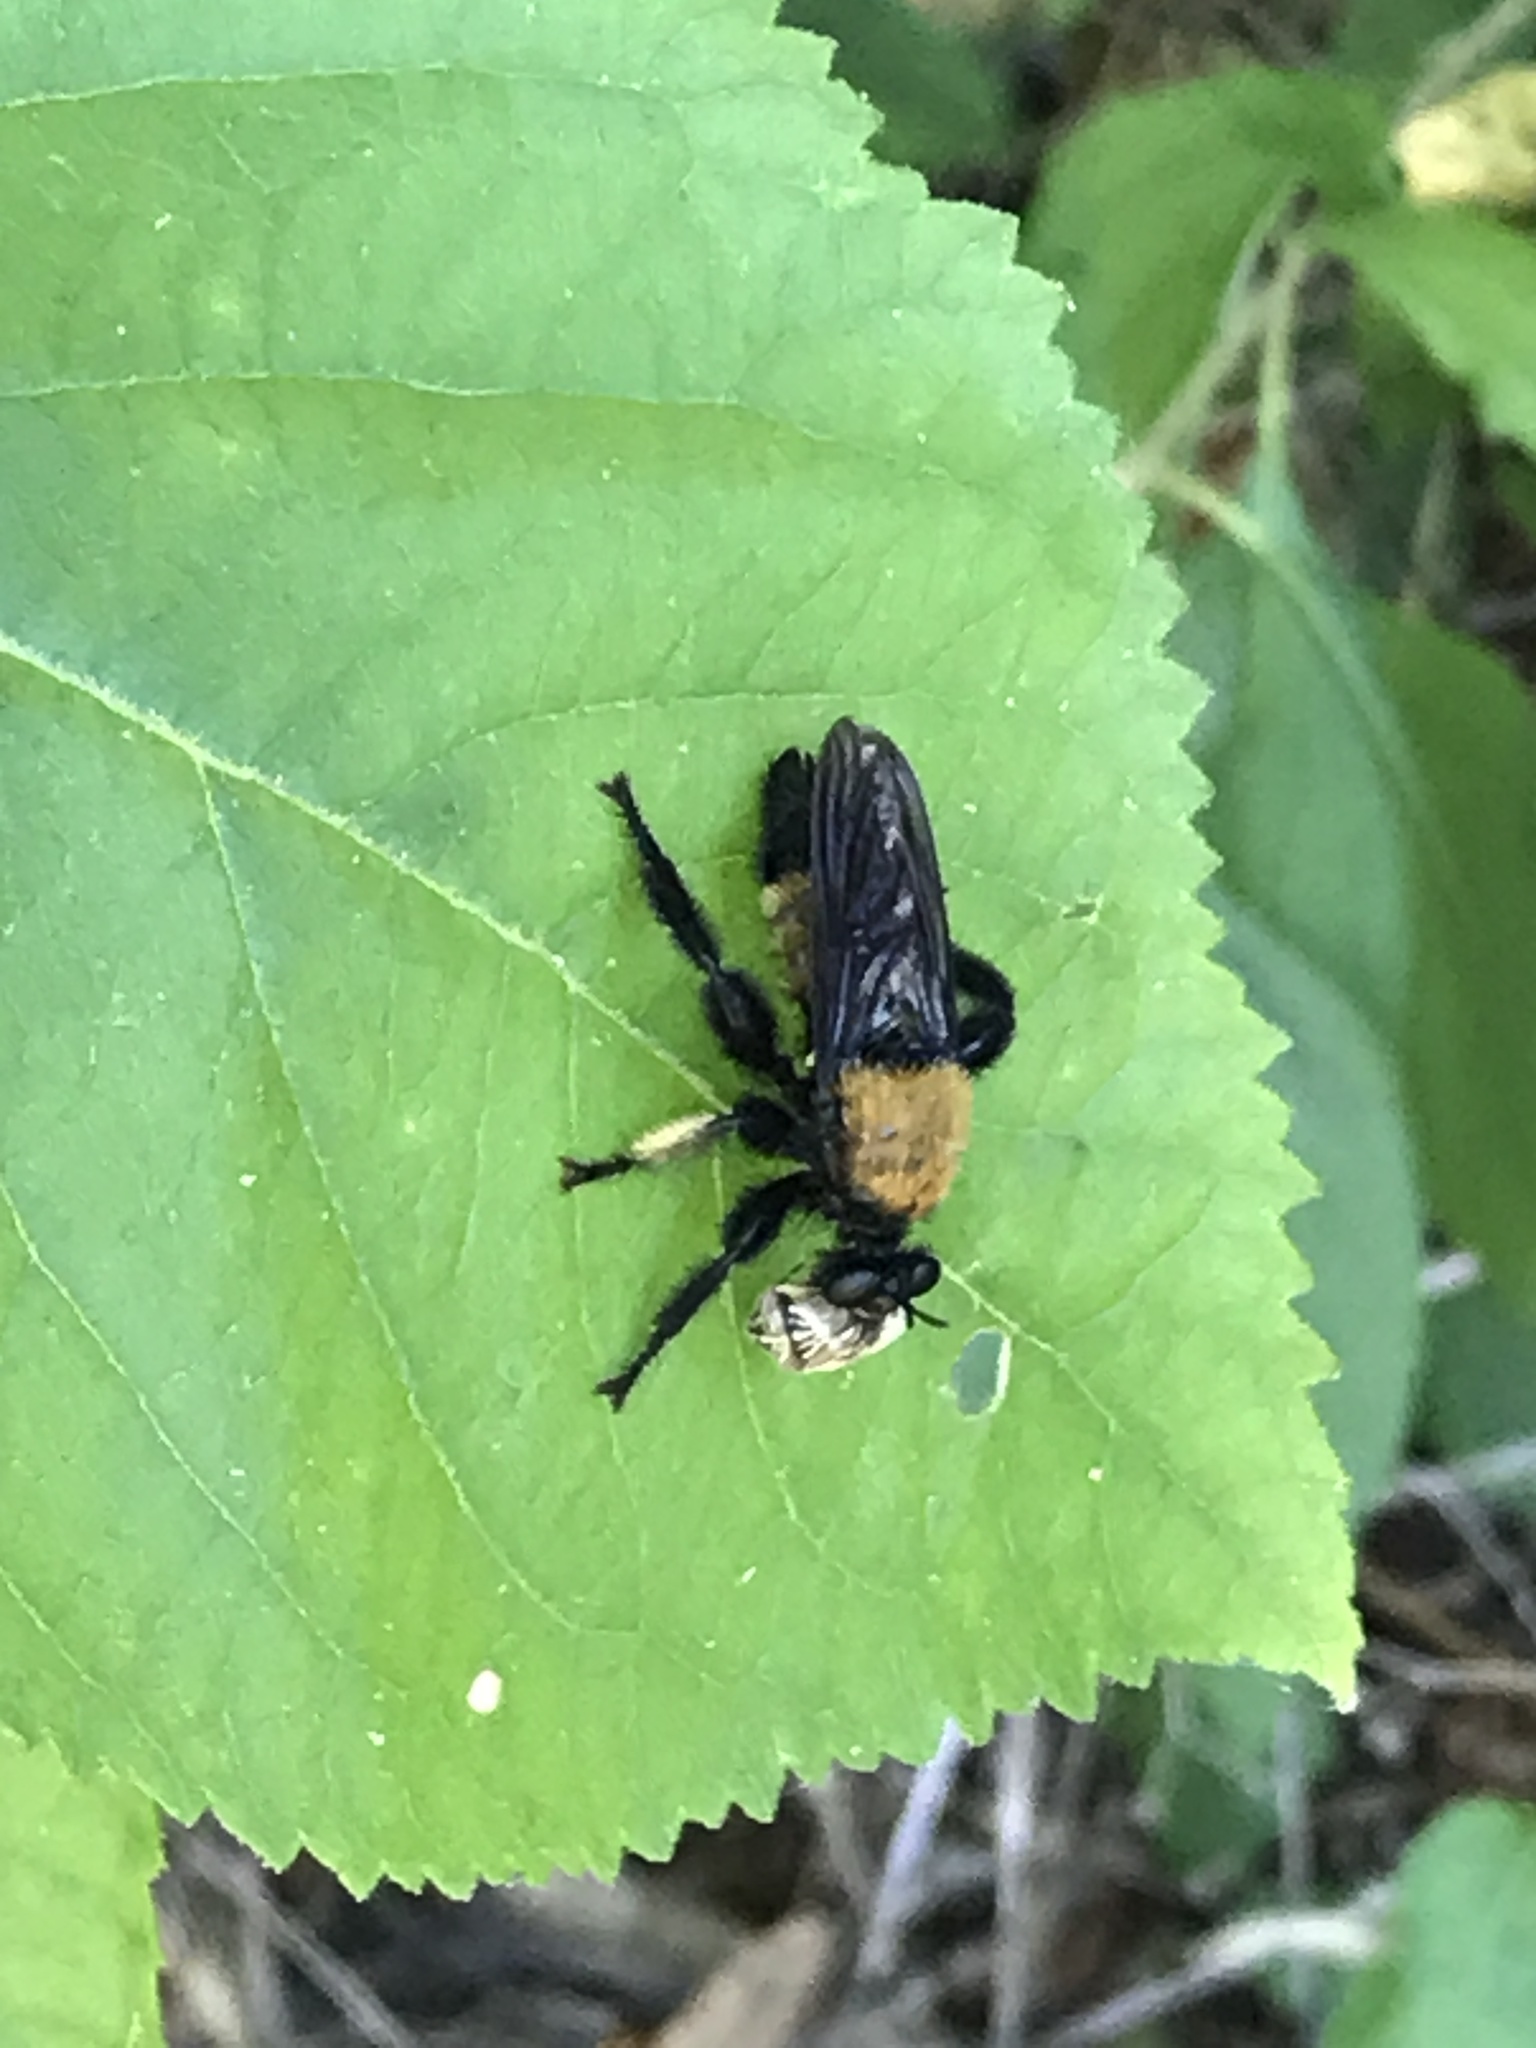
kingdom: Animalia
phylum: Arthropoda
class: Insecta
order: Diptera
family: Asilidae
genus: Laphria
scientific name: Laphria macquarti
